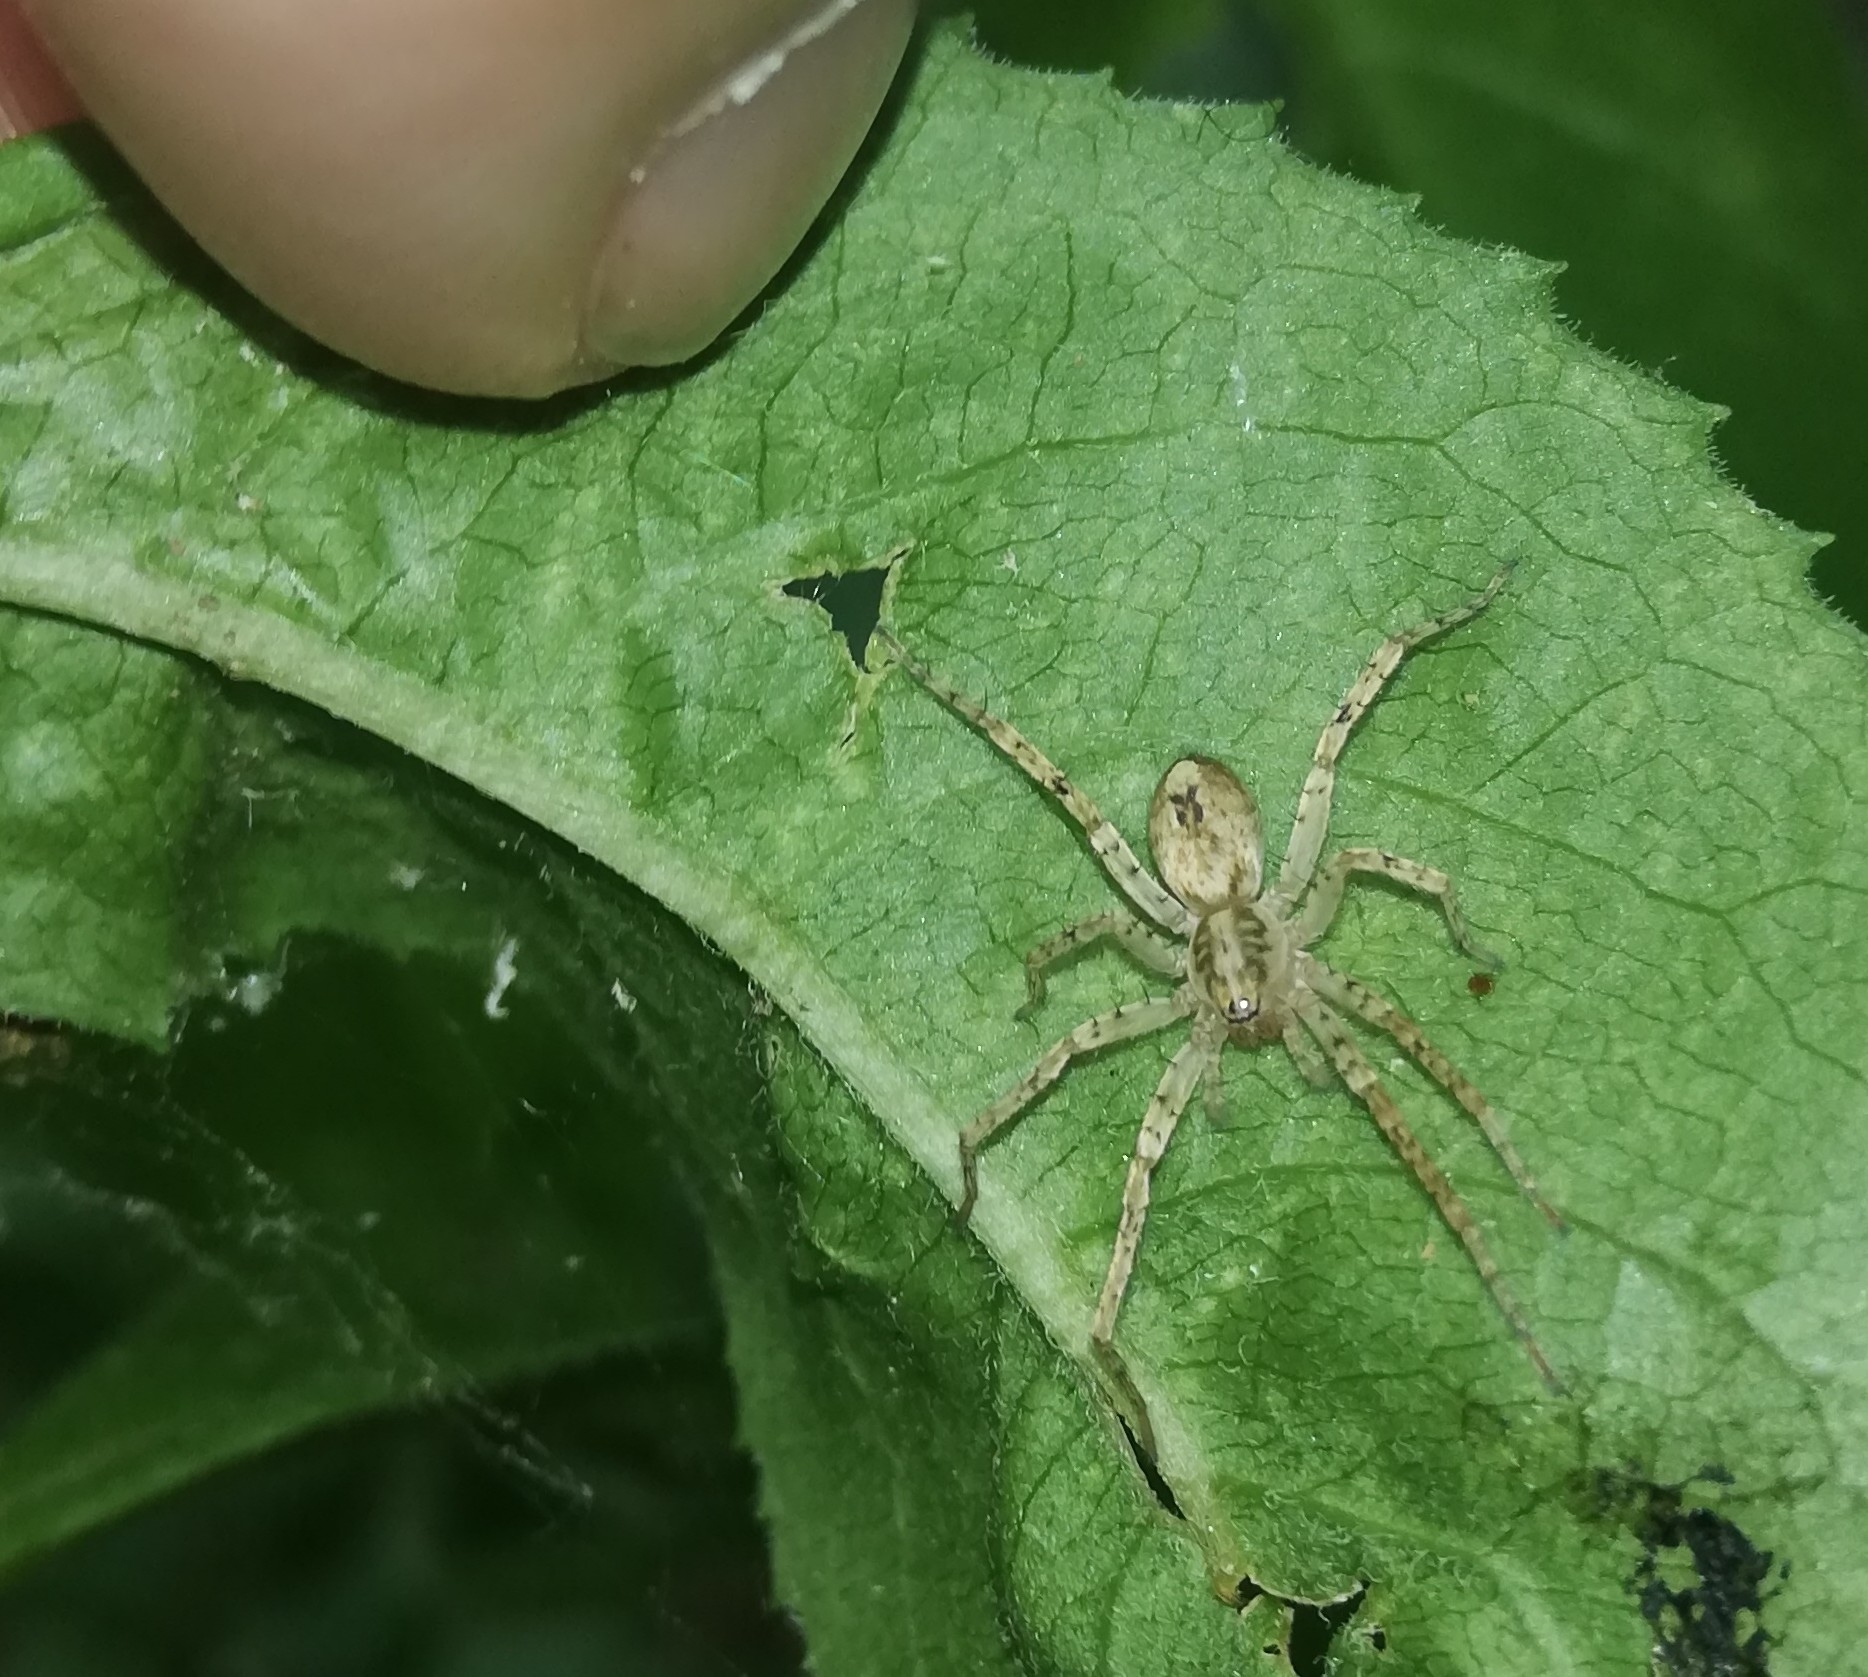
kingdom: Animalia
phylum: Arthropoda
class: Arachnida
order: Araneae
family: Anyphaenidae
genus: Anyphaena
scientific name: Anyphaena accentuata
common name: Buzzing spider
